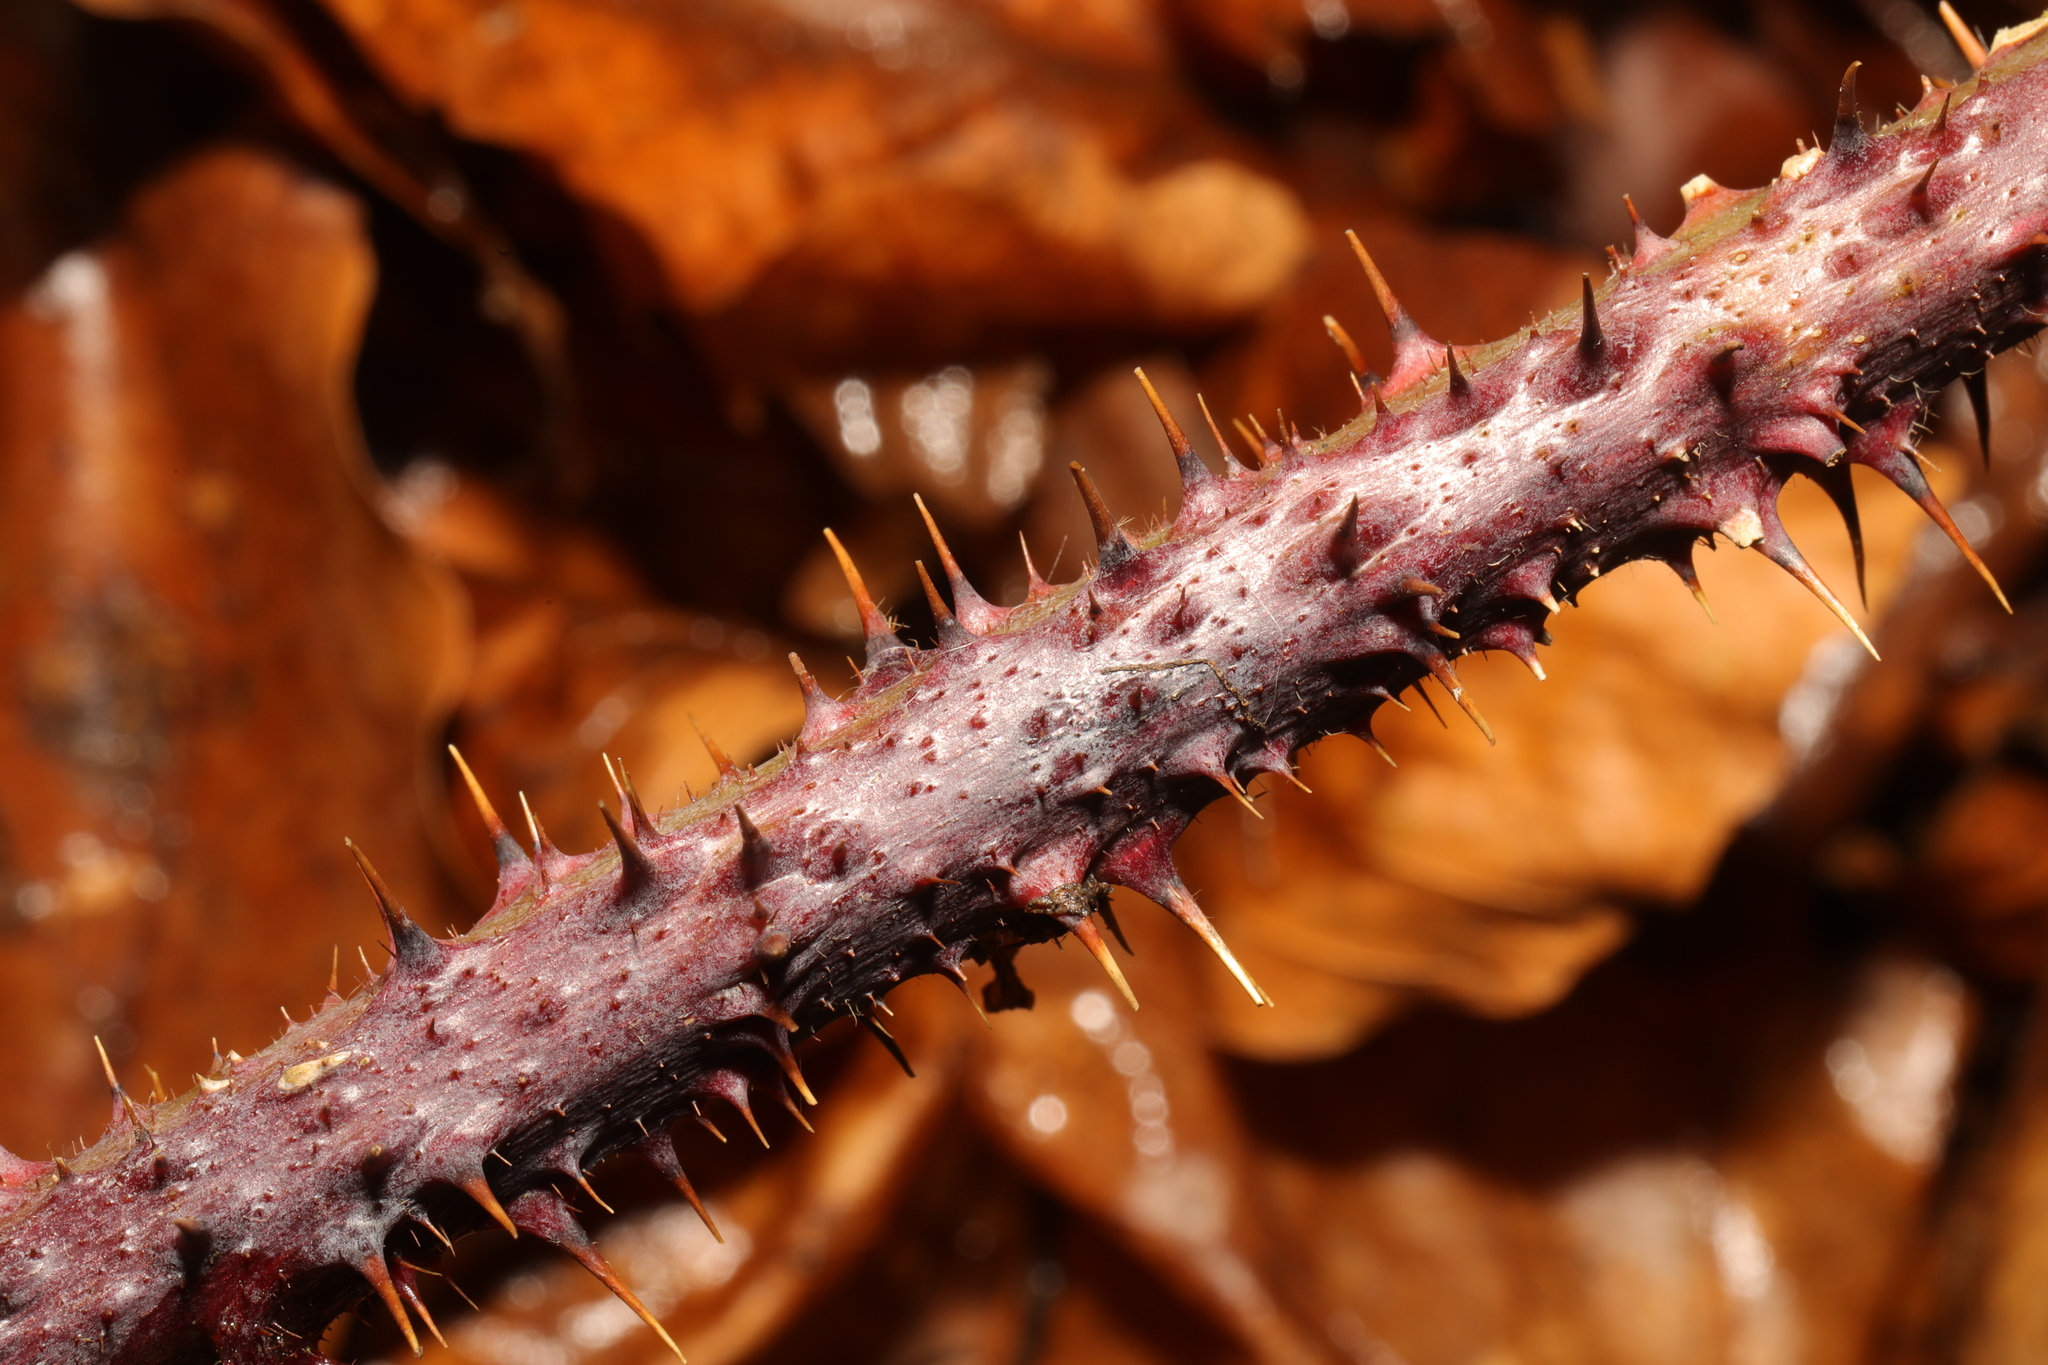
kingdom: Plantae
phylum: Tracheophyta
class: Magnoliopsida
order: Rosales
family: Rosaceae
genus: Rubus
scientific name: Rubus fruticosus
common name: Blackberry, bramble
